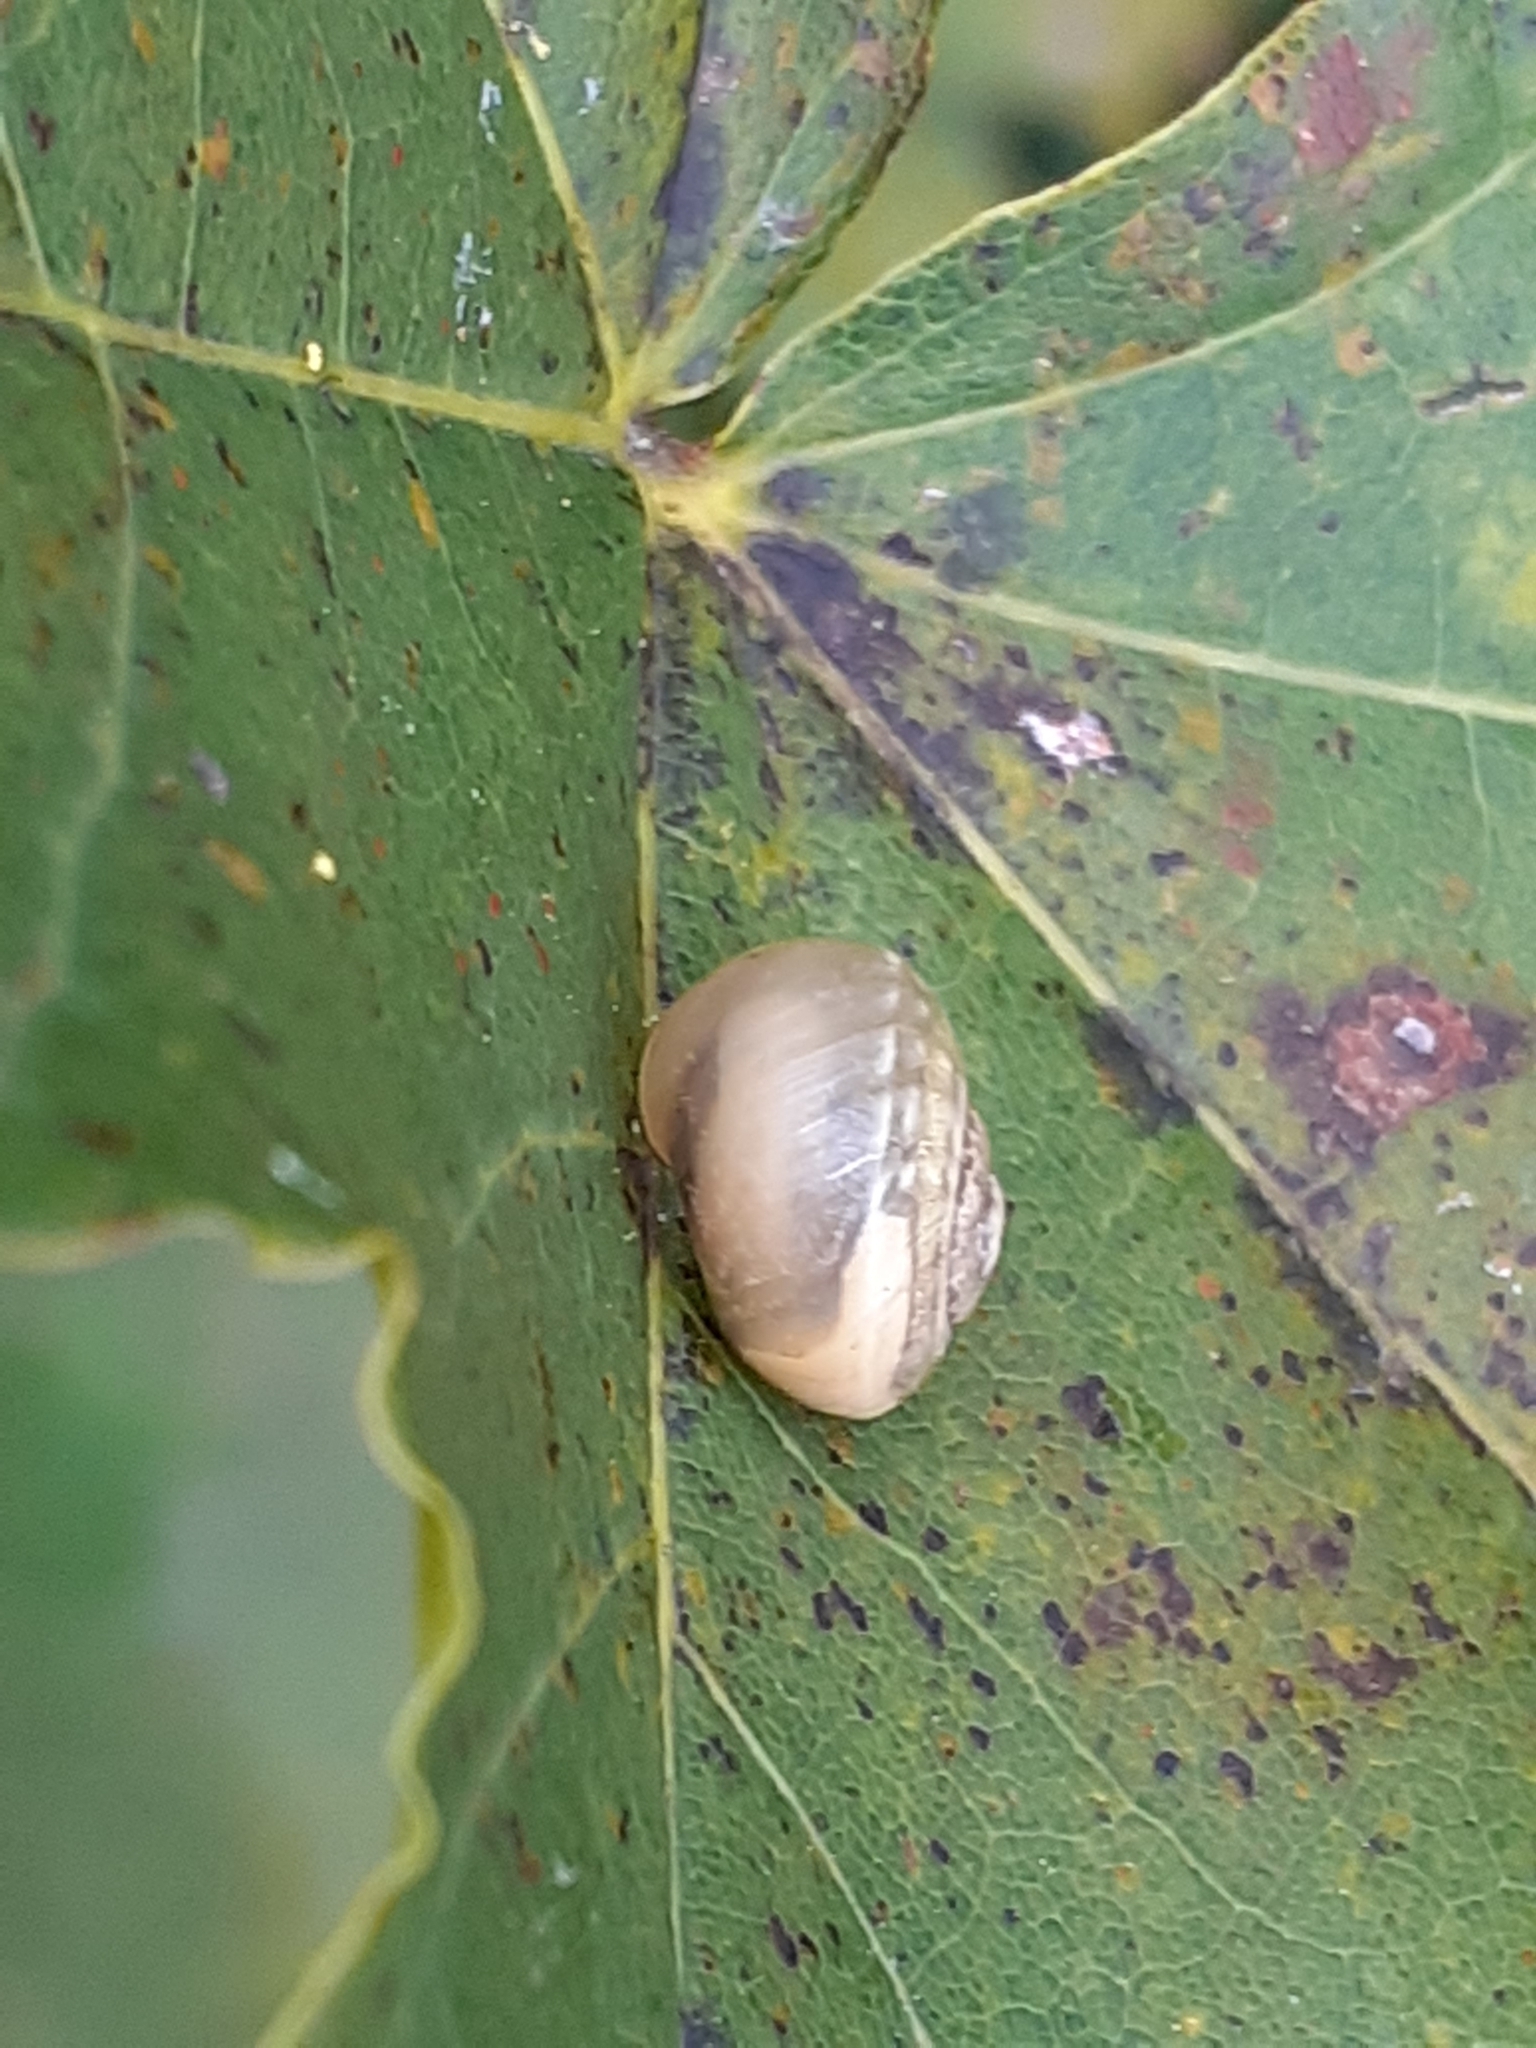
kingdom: Animalia
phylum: Mollusca
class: Gastropoda
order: Stylommatophora
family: Hygromiidae
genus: Monacha
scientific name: Monacha cantiana
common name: Kentish snail
